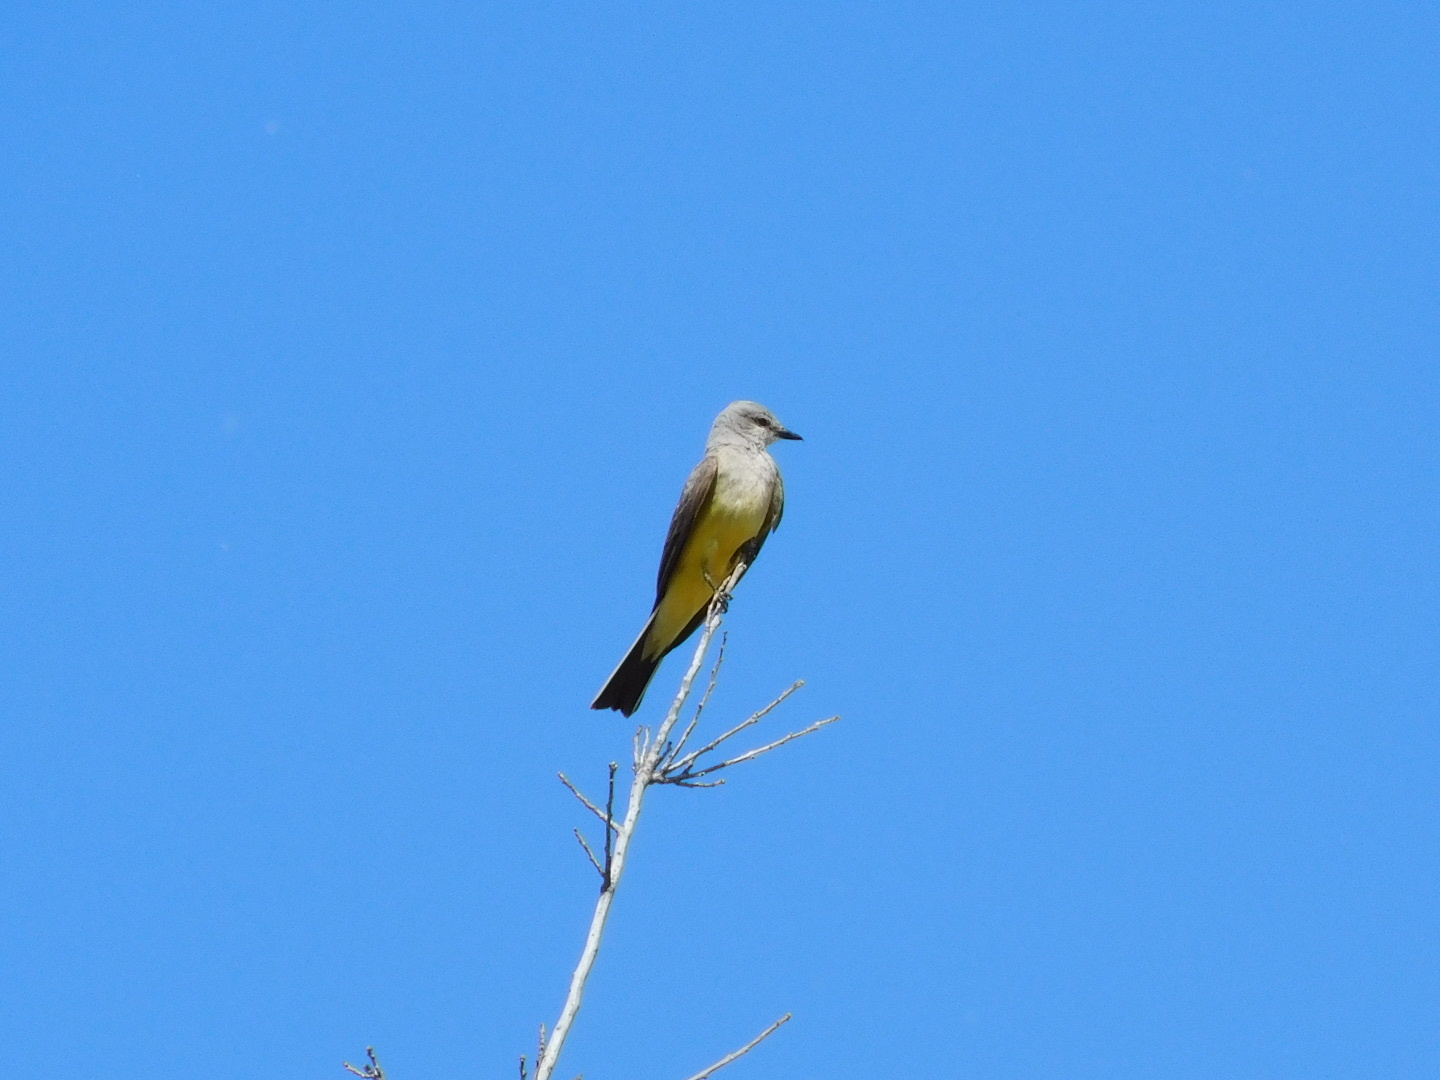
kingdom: Animalia
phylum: Chordata
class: Aves
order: Passeriformes
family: Tyrannidae
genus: Tyrannus
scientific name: Tyrannus verticalis
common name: Western kingbird
